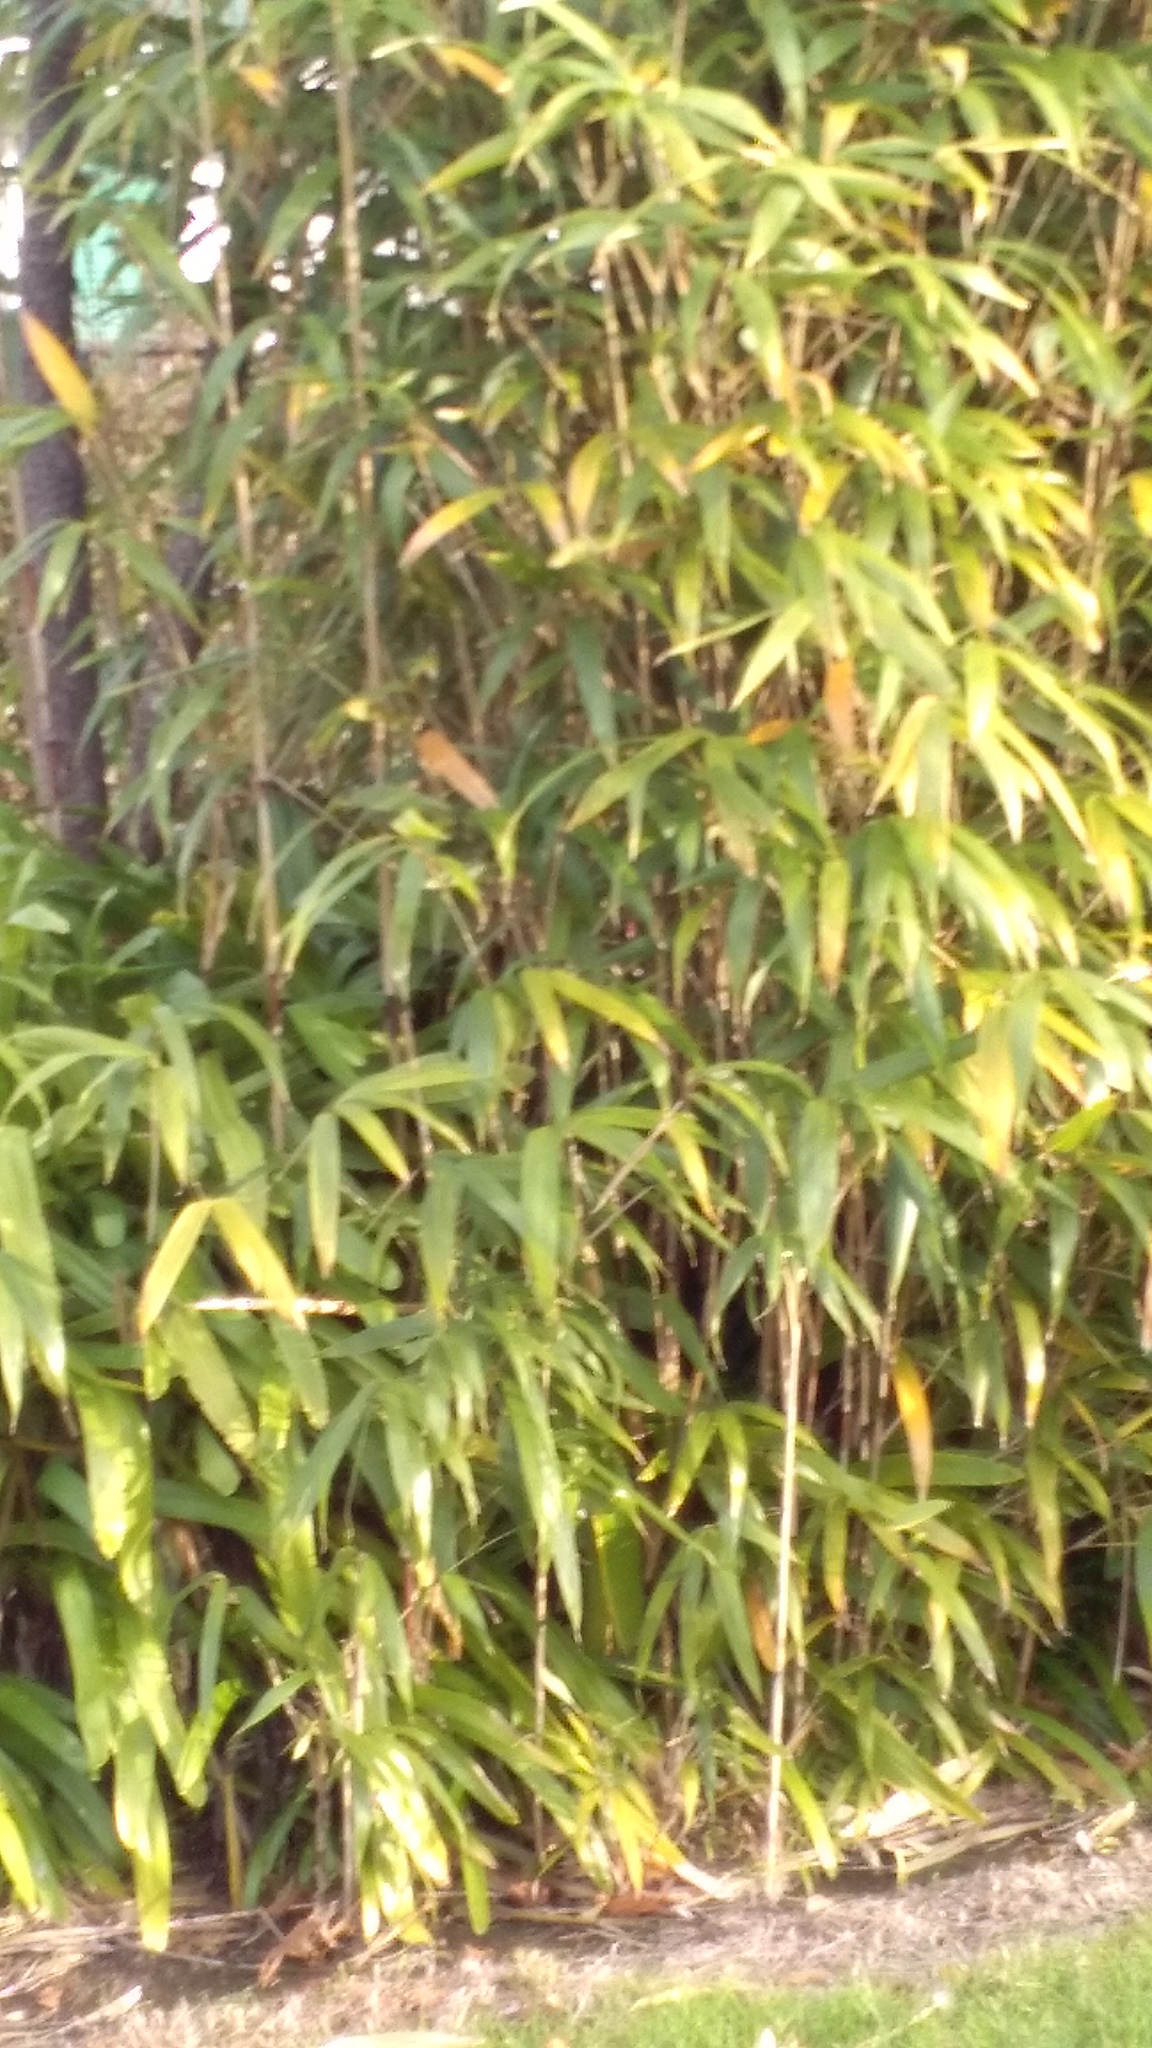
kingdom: Plantae
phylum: Tracheophyta
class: Liliopsida
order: Poales
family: Poaceae
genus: Pseudosasa
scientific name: Pseudosasa japonica
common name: Arrow bamboo
